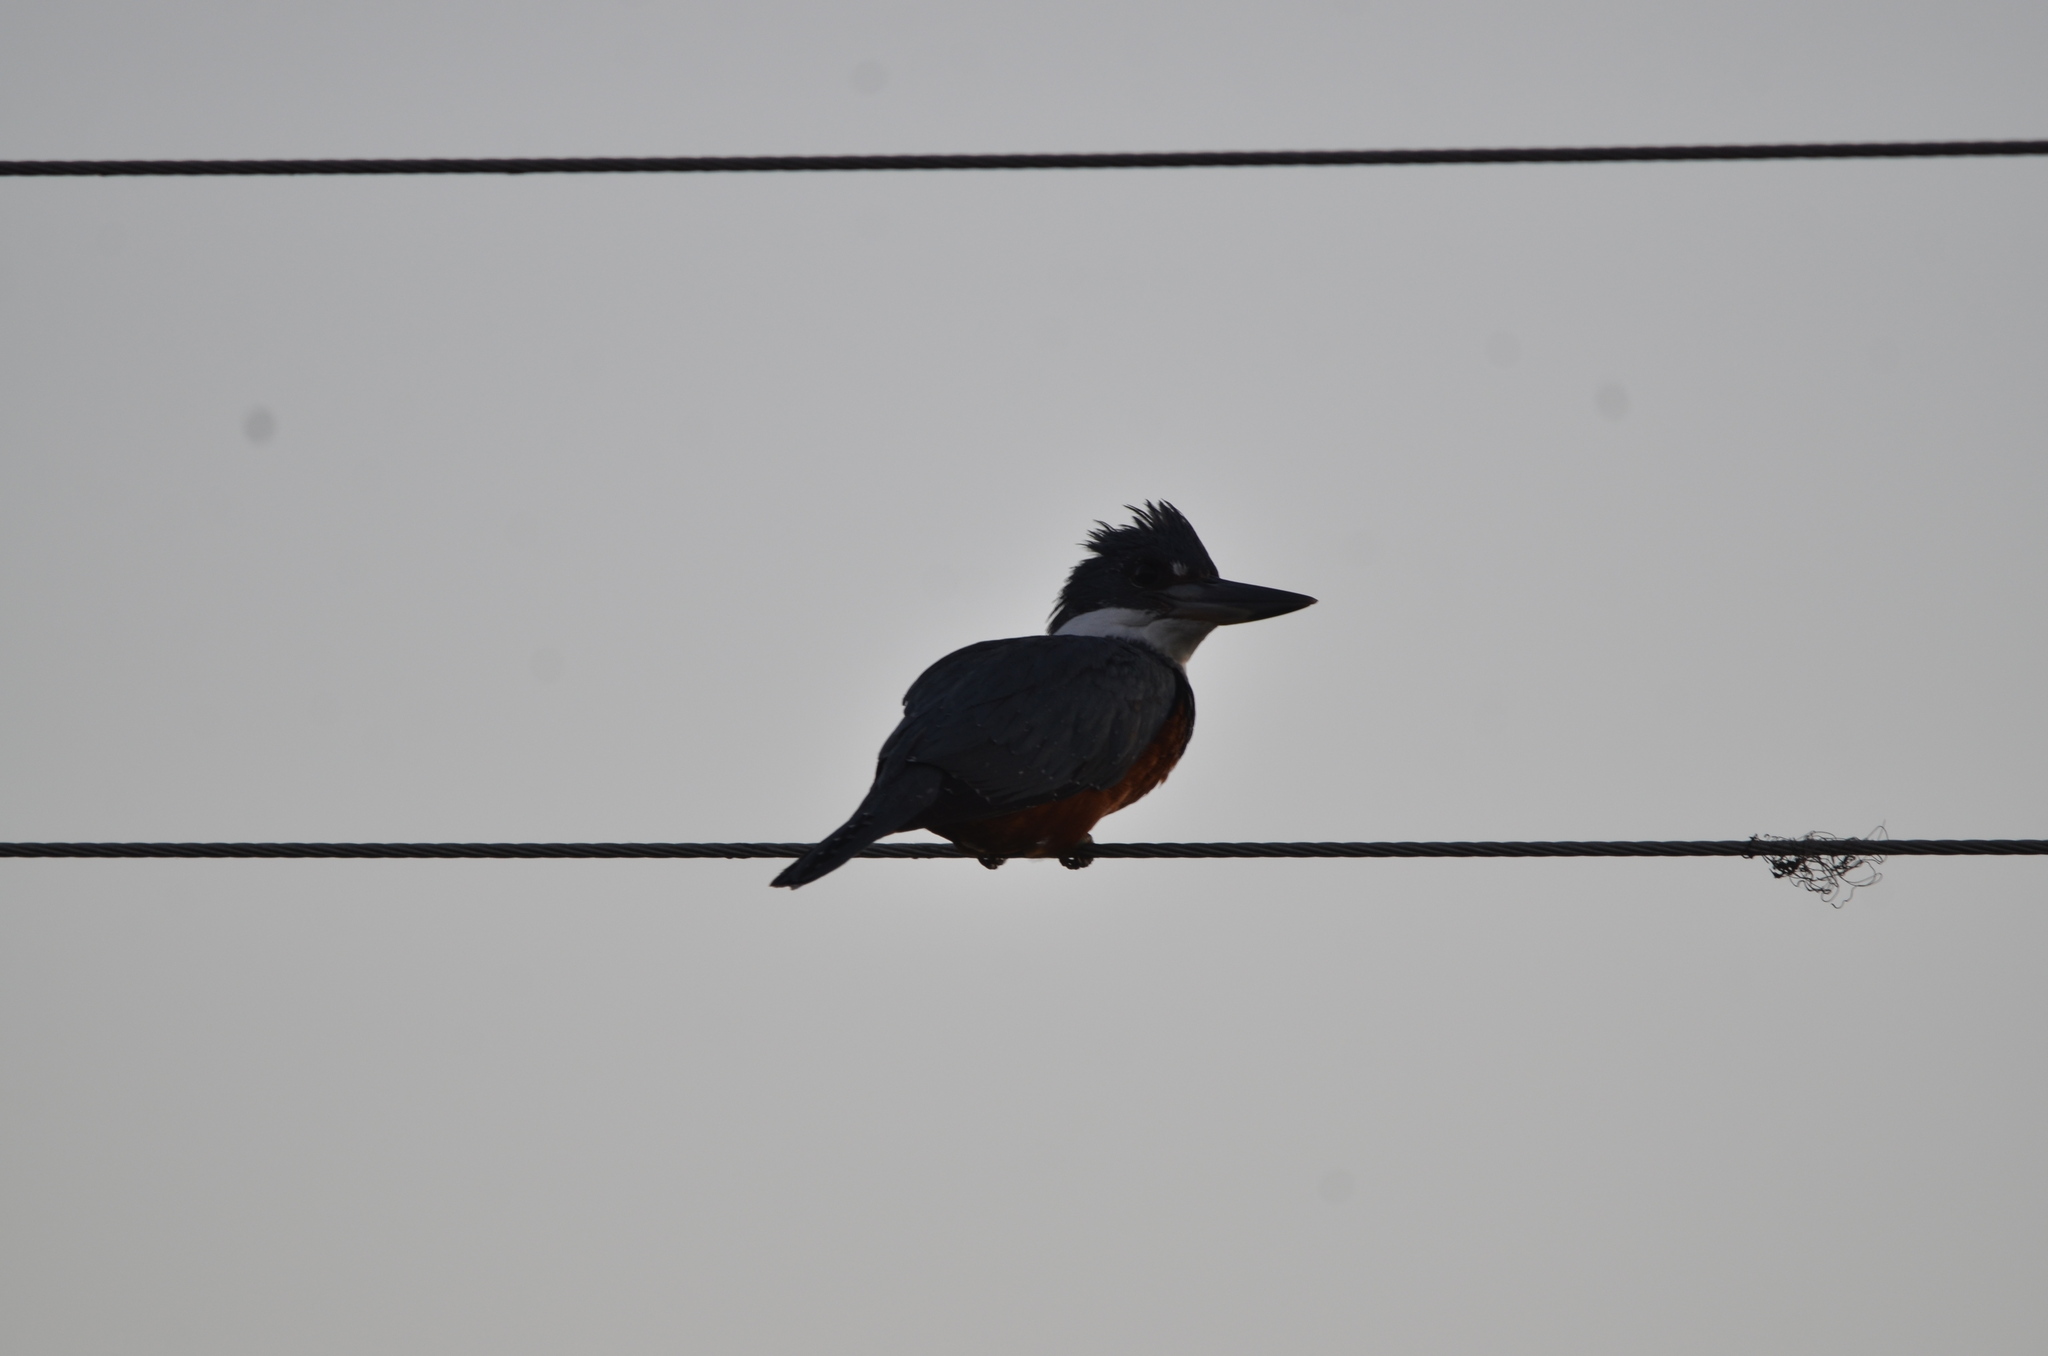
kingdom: Animalia
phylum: Chordata
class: Aves
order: Coraciiformes
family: Alcedinidae
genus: Megaceryle
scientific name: Megaceryle torquata
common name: Ringed kingfisher
